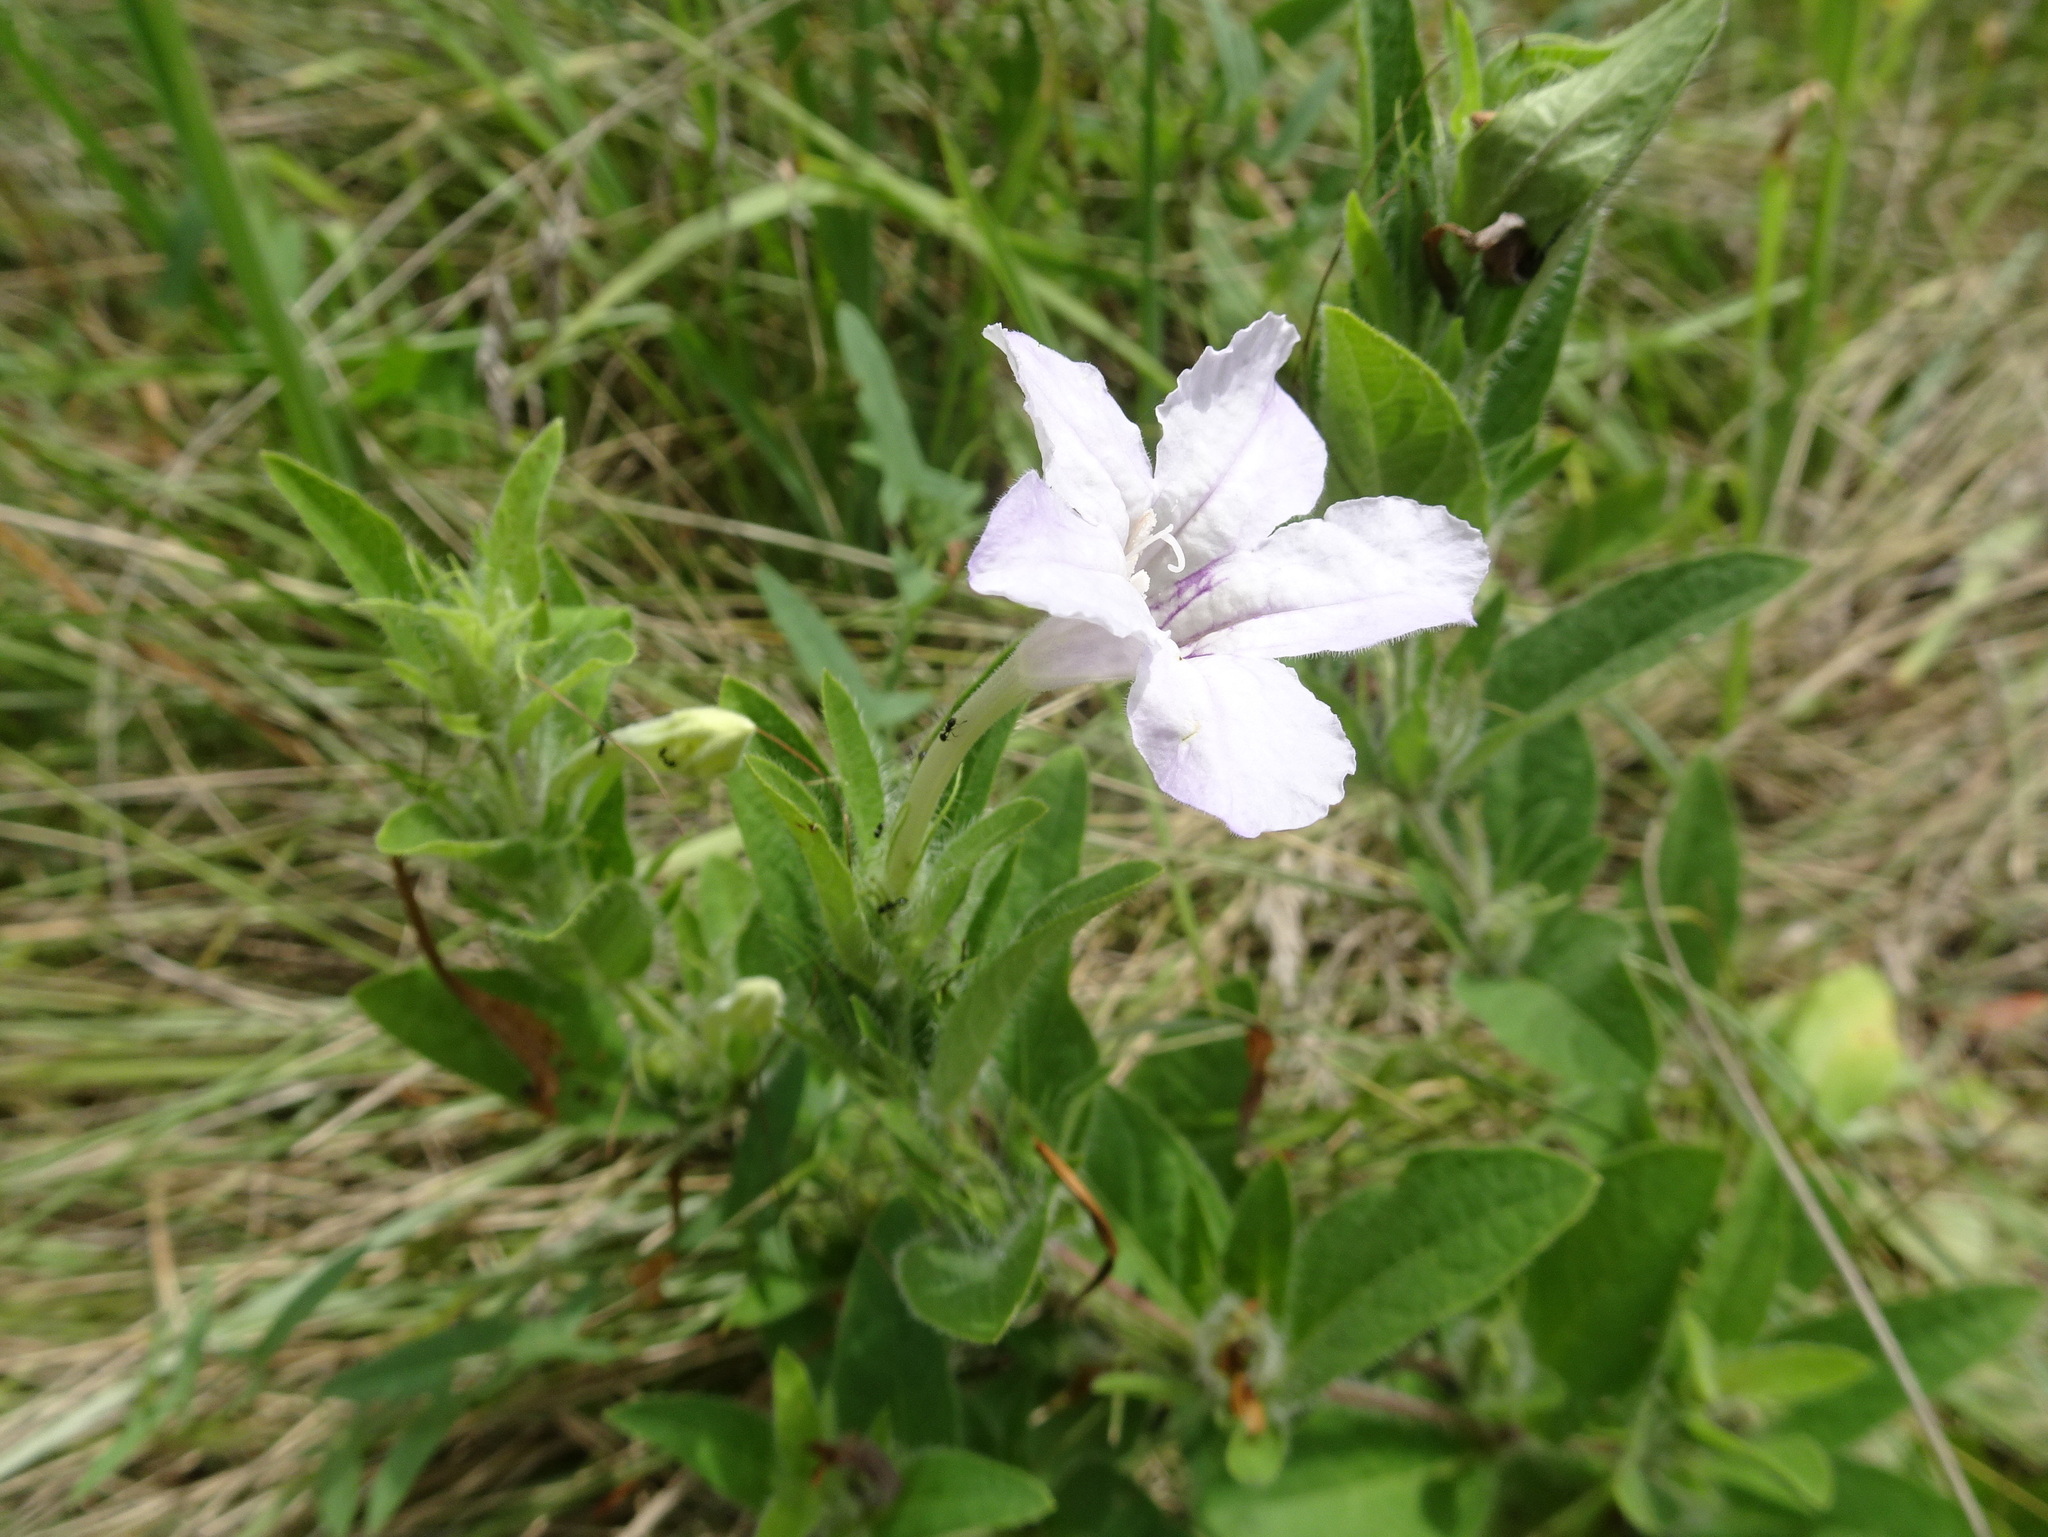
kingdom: Plantae
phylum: Tracheophyta
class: Magnoliopsida
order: Lamiales
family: Acanthaceae
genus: Ruellia
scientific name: Ruellia humilis
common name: Fringe-leaf ruellia
